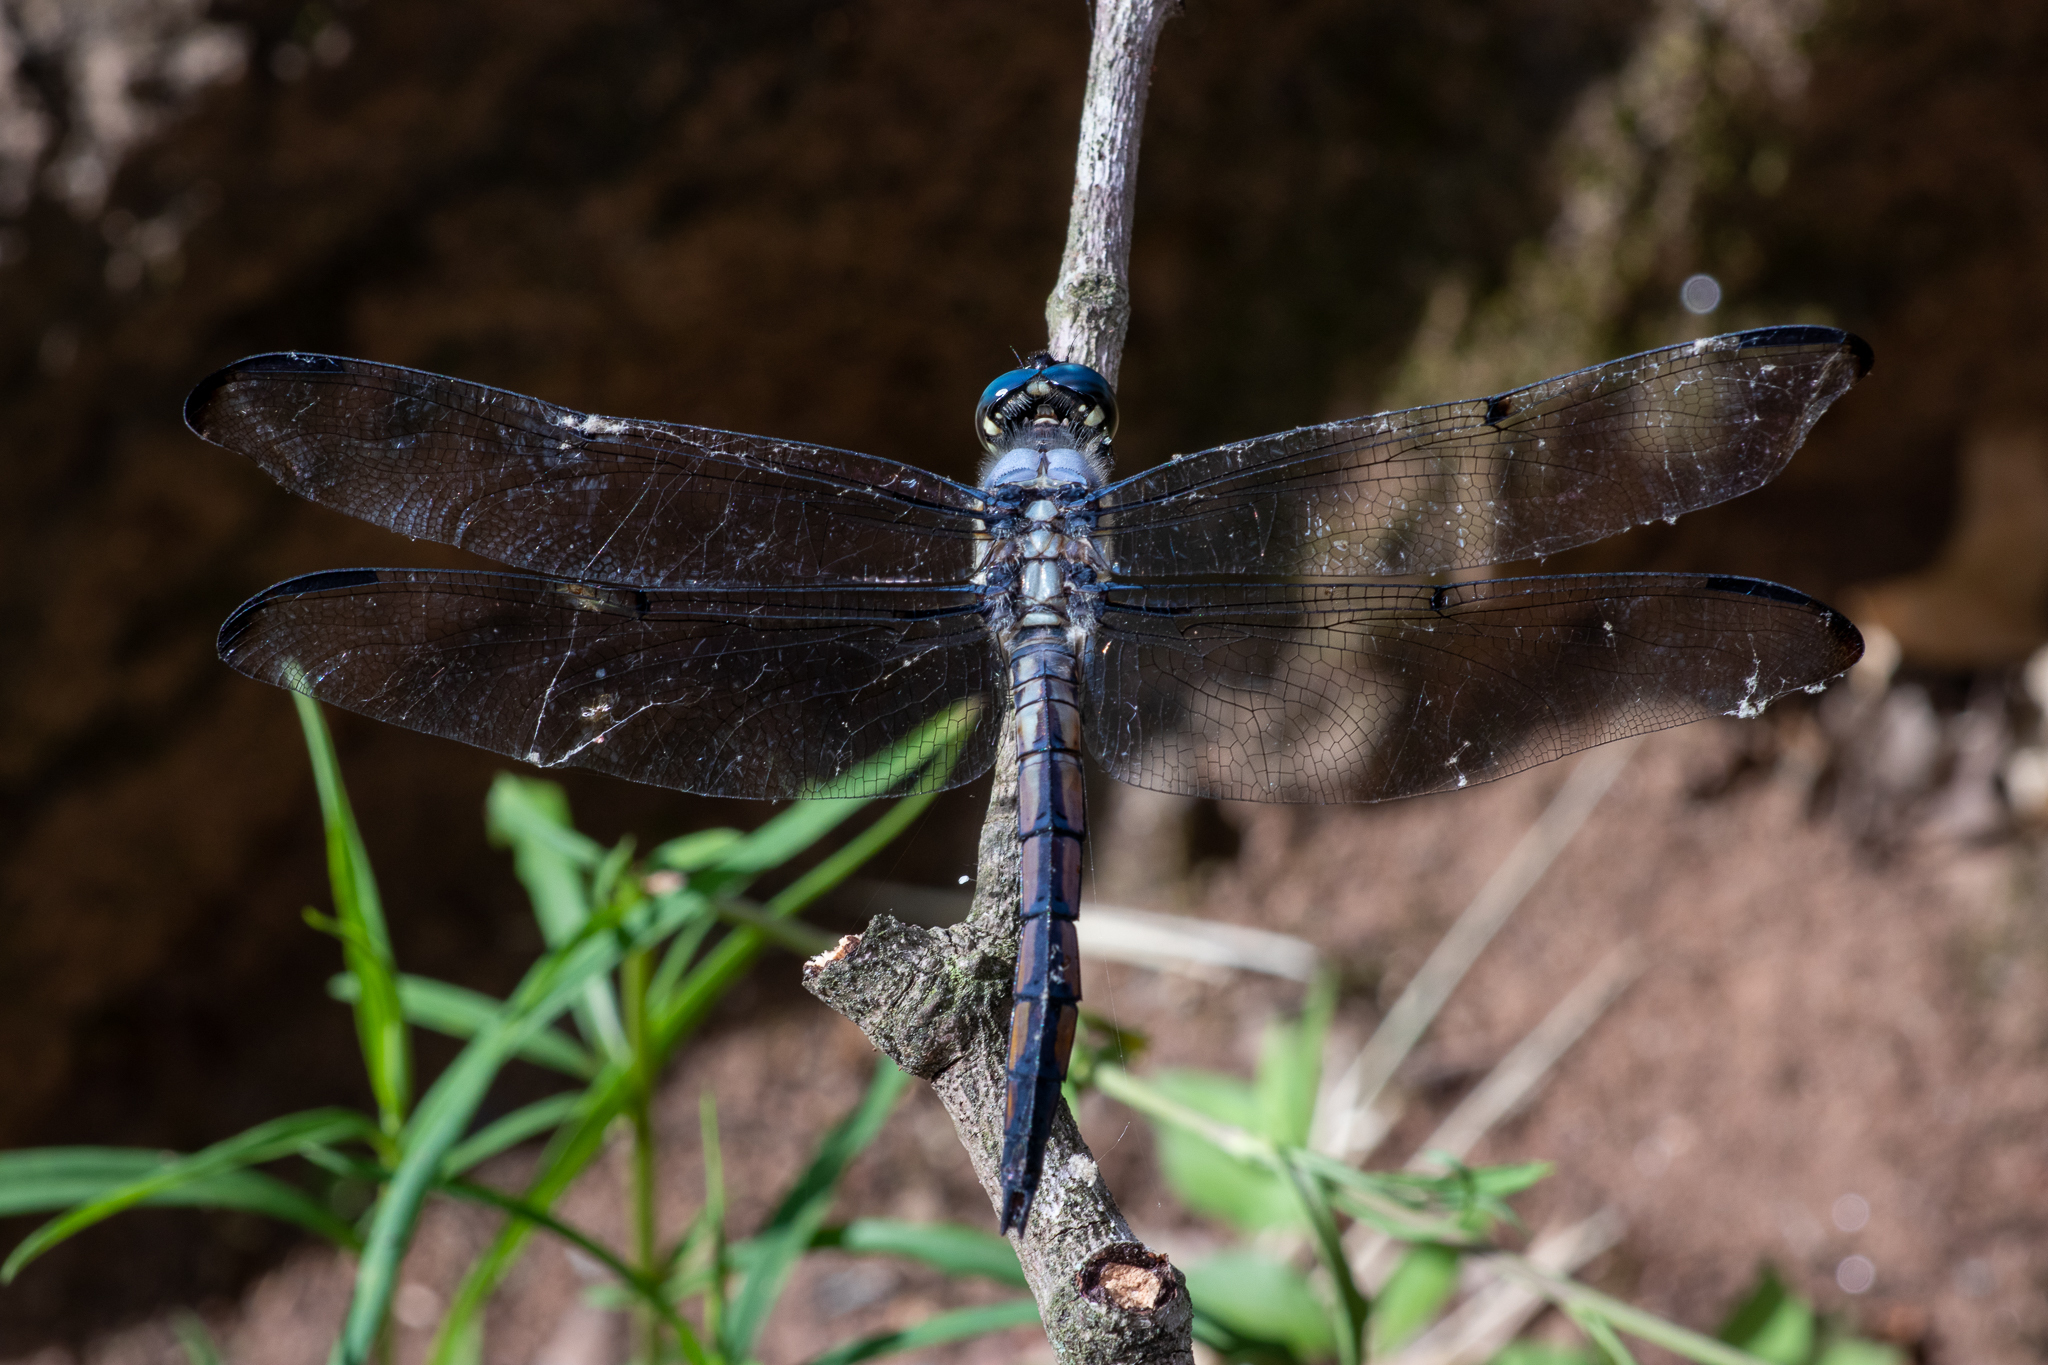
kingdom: Animalia
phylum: Arthropoda
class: Insecta
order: Odonata
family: Libellulidae
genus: Libellula
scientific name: Libellula vibrans
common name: Great blue skimmer
